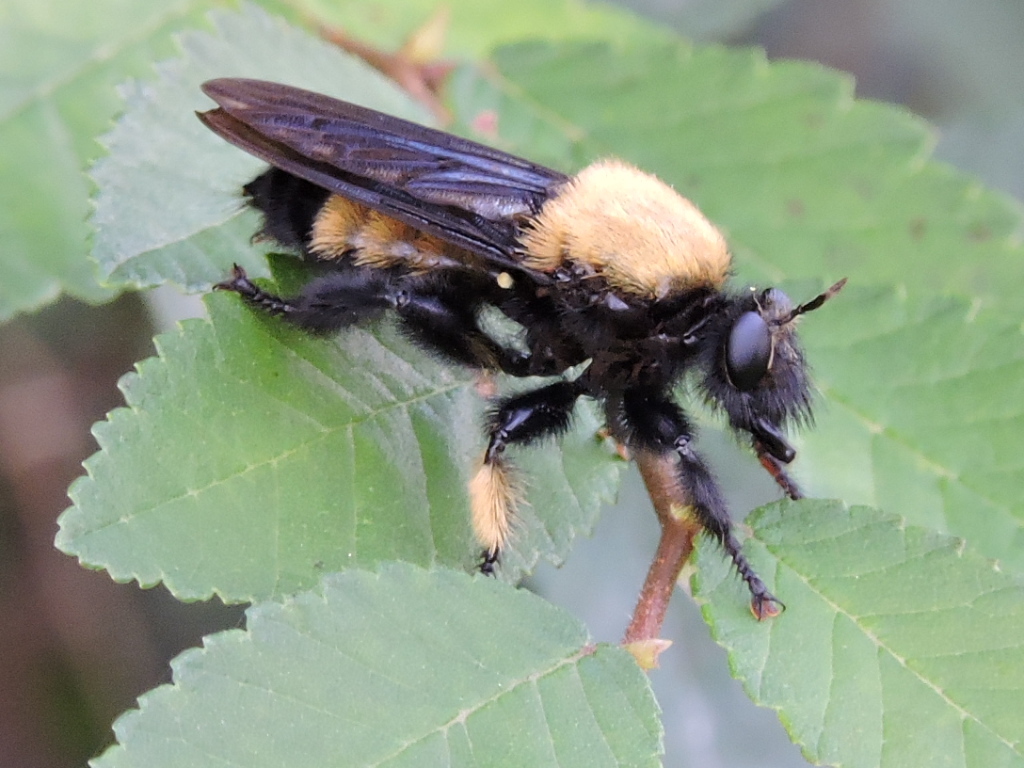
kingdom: Animalia
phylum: Arthropoda
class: Insecta
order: Diptera
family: Asilidae
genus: Laphria
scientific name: Laphria macquarti
